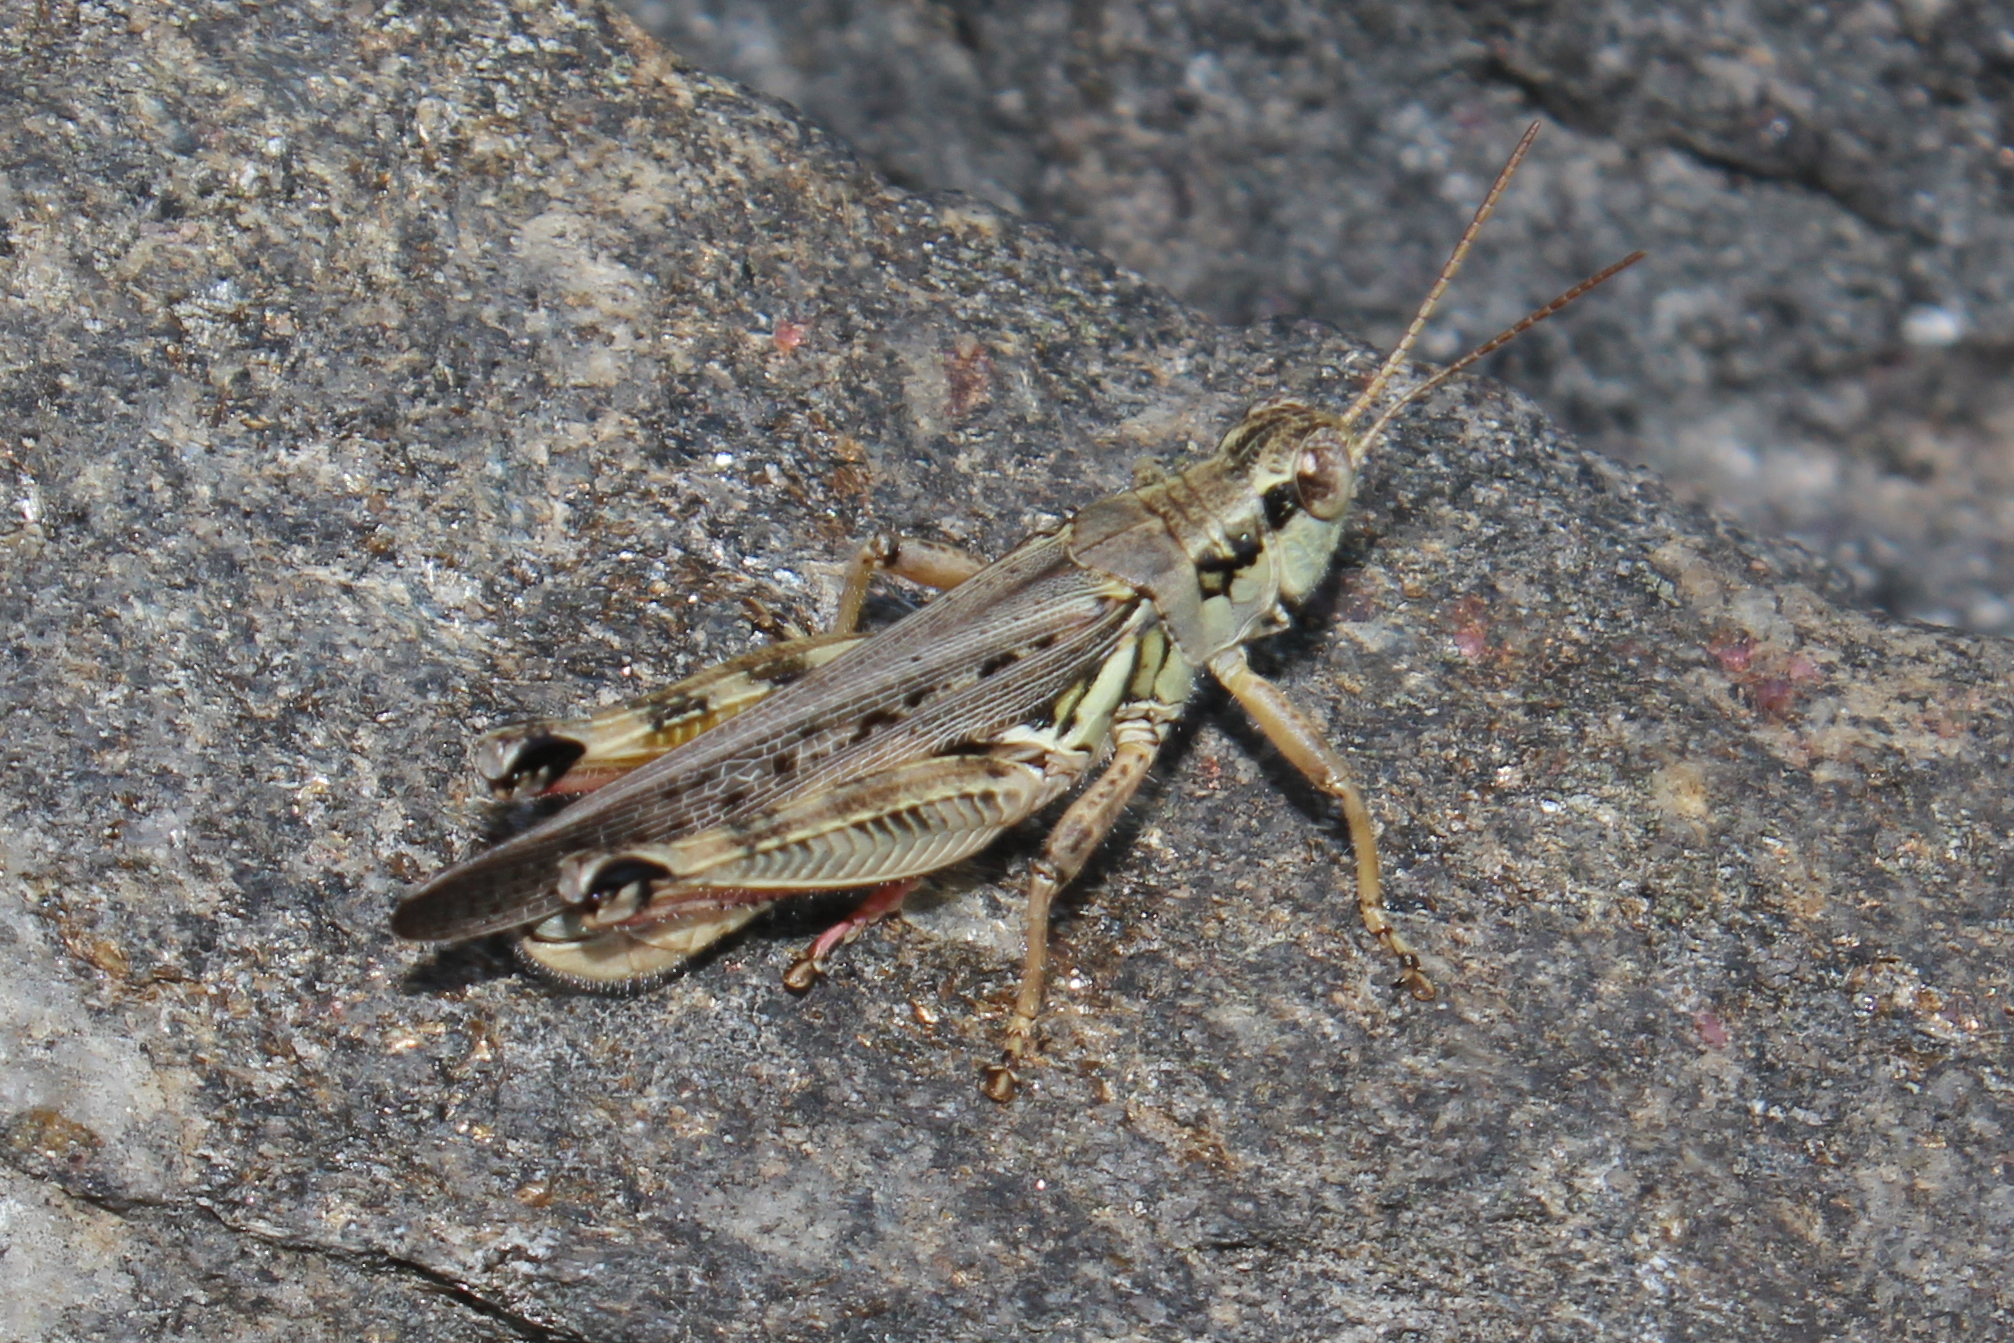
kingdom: Animalia
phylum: Arthropoda
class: Insecta
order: Orthoptera
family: Acrididae
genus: Melanoplus
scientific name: Melanoplus sanguinipes
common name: Migratory grasshopper
